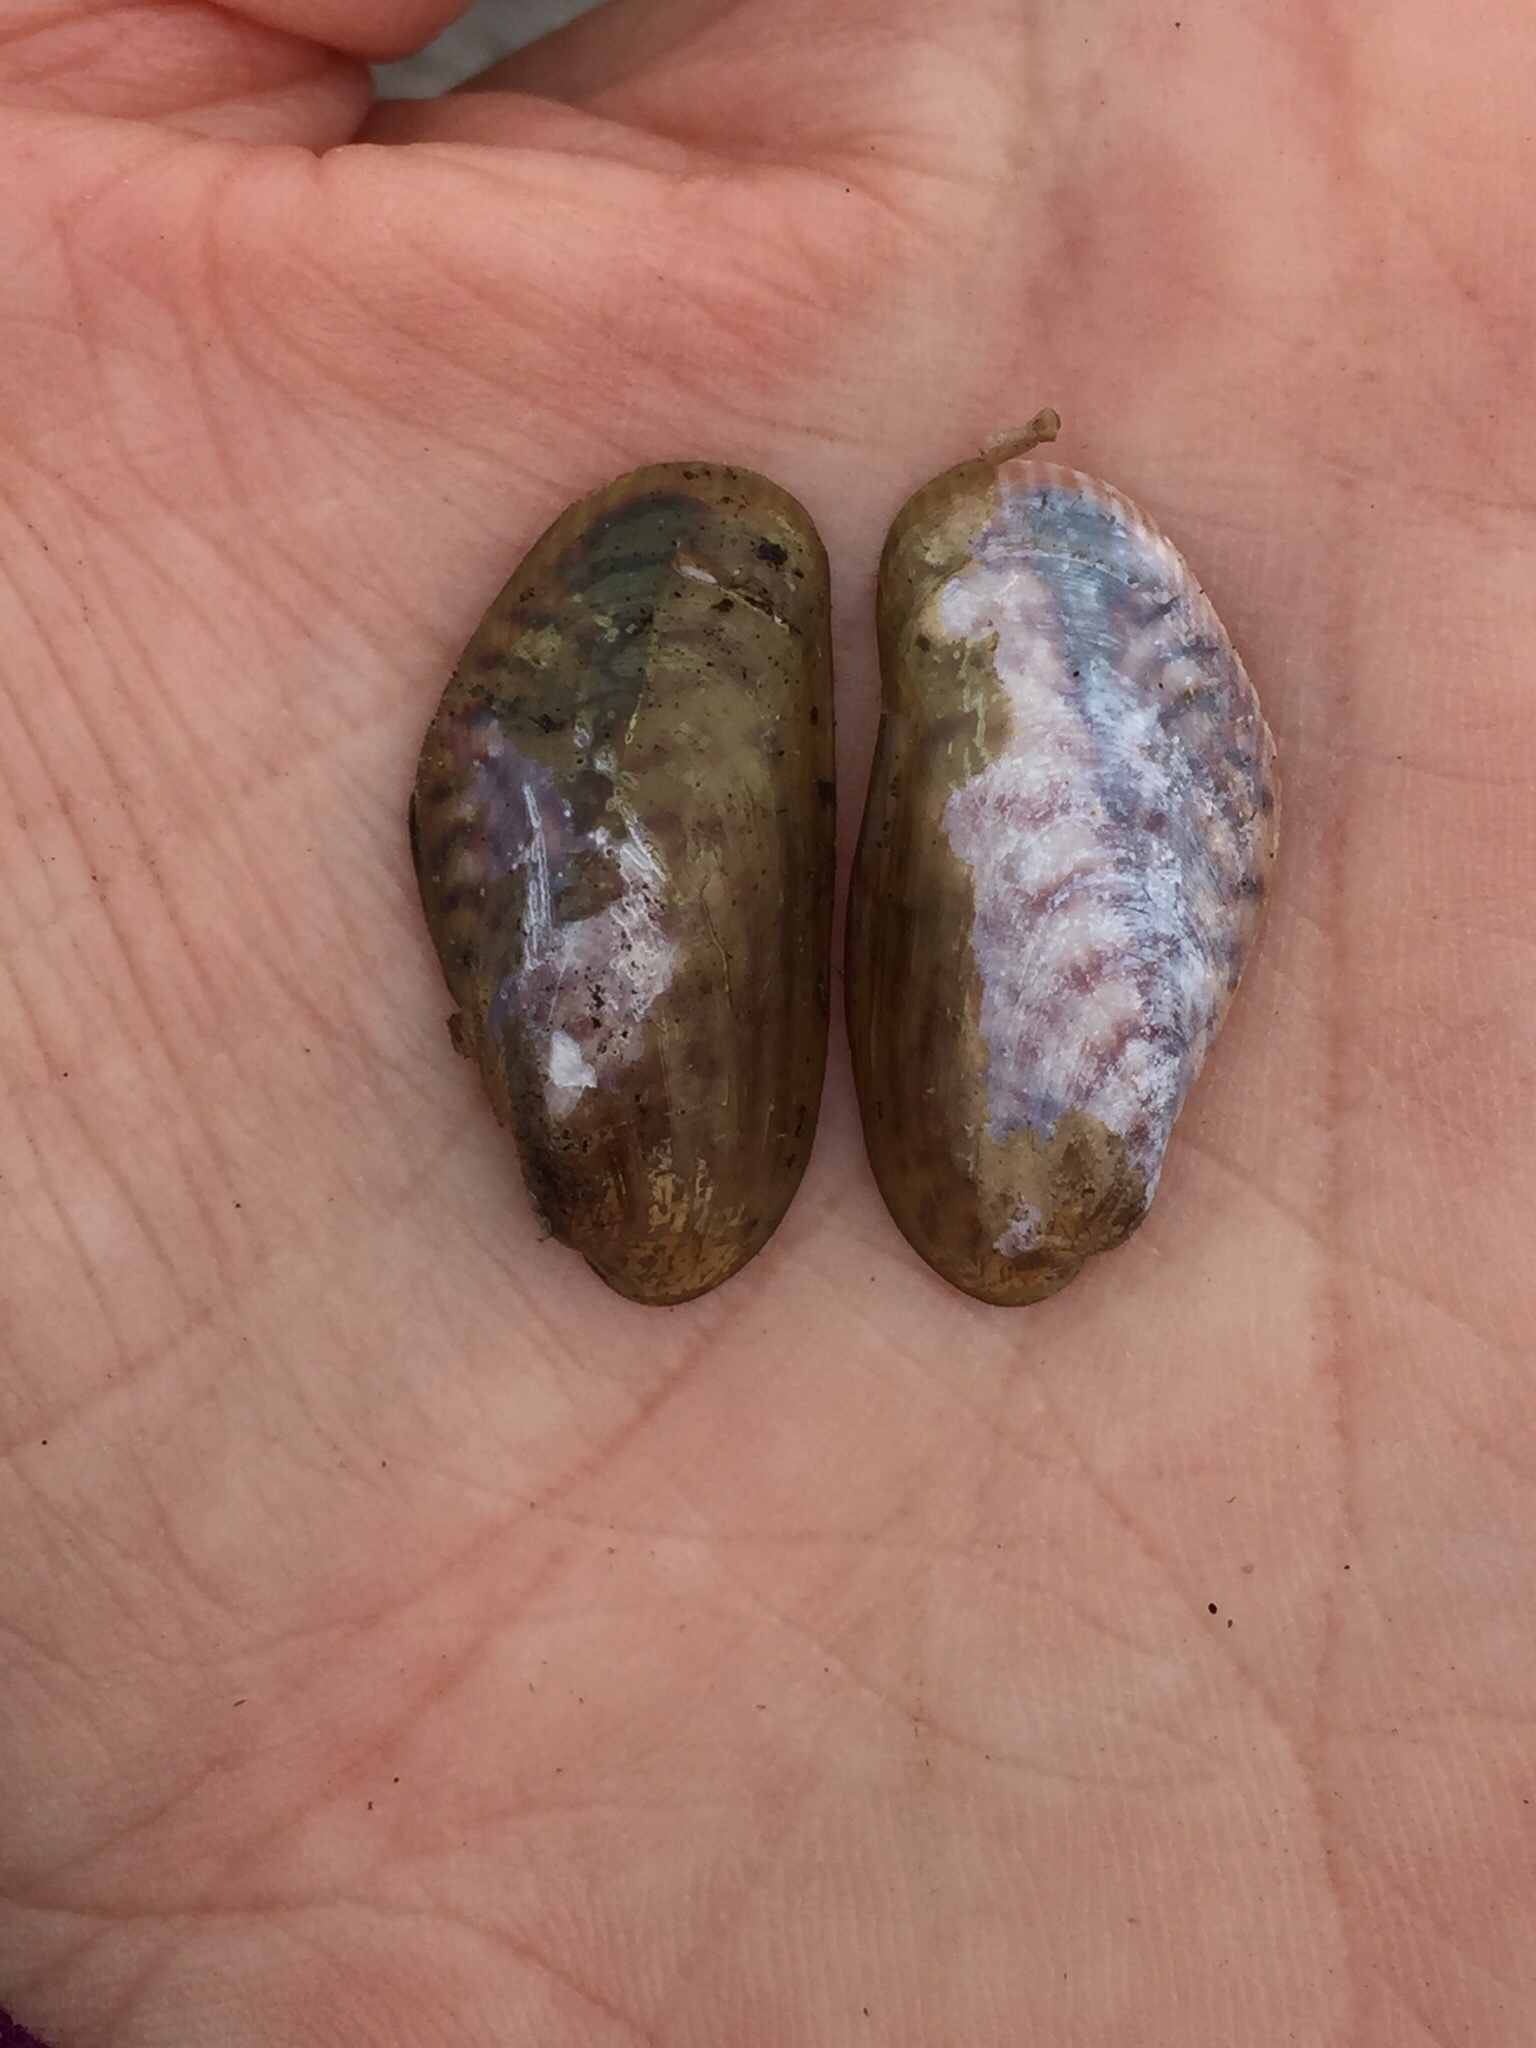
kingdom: Animalia
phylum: Mollusca
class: Bivalvia
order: Mytilida
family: Mytilidae
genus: Arcuatula
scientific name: Arcuatula senhousia
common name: Asian mussel
